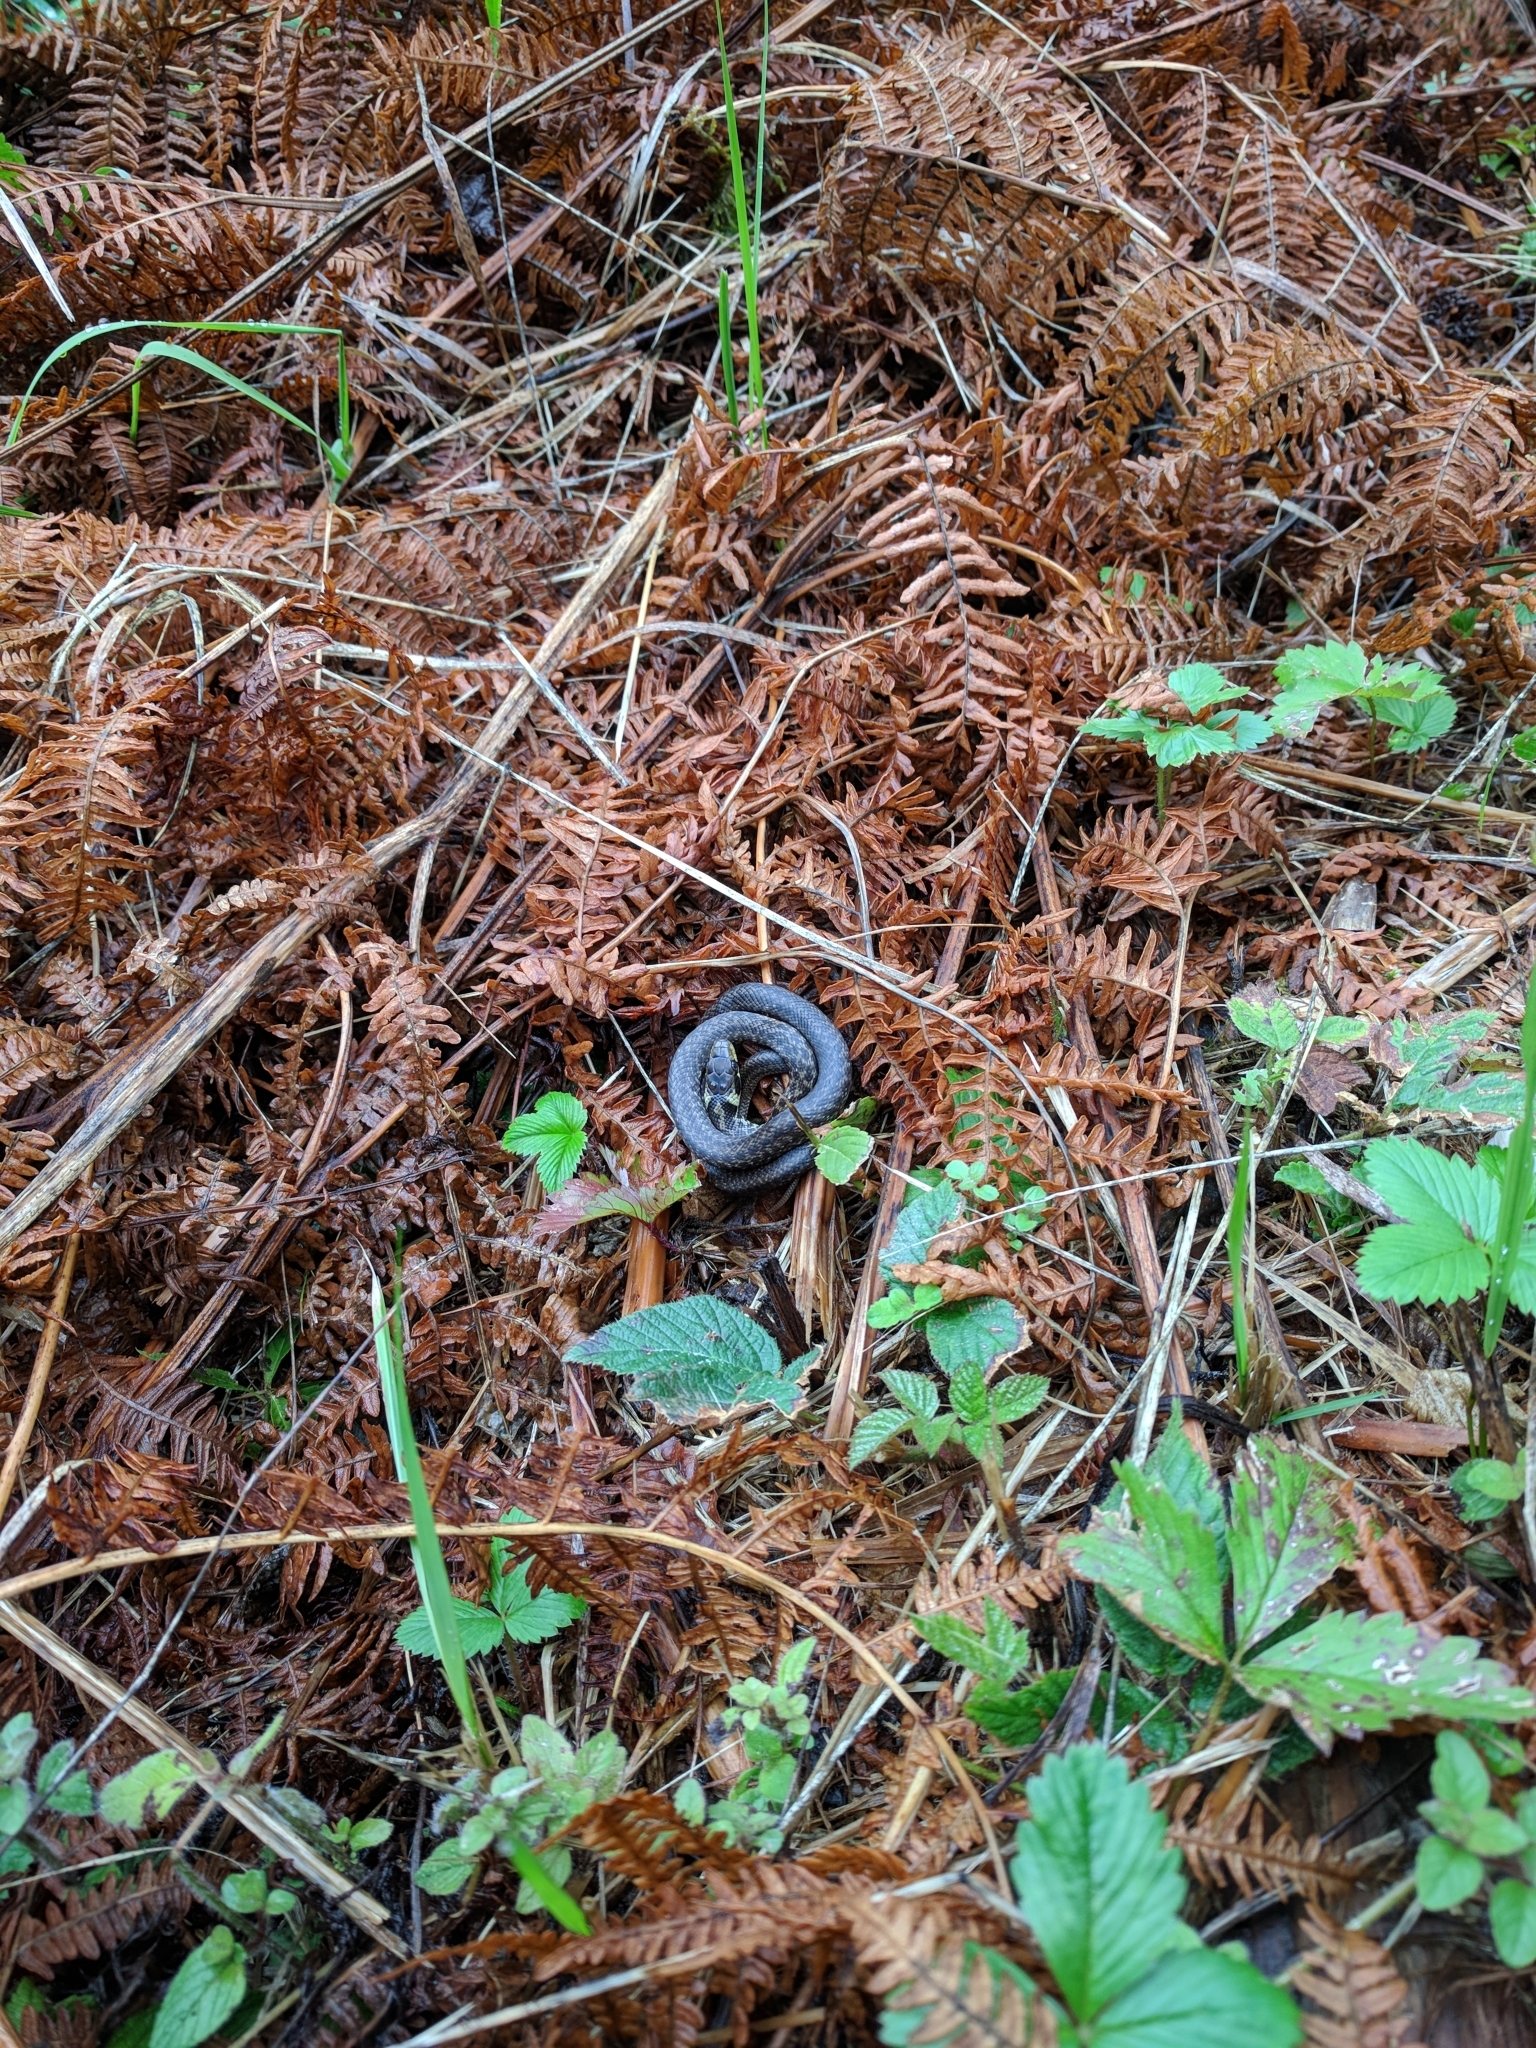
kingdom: Animalia
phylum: Chordata
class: Squamata
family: Colubridae
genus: Zamenis
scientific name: Zamenis longissimus
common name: Aesculapean snake
